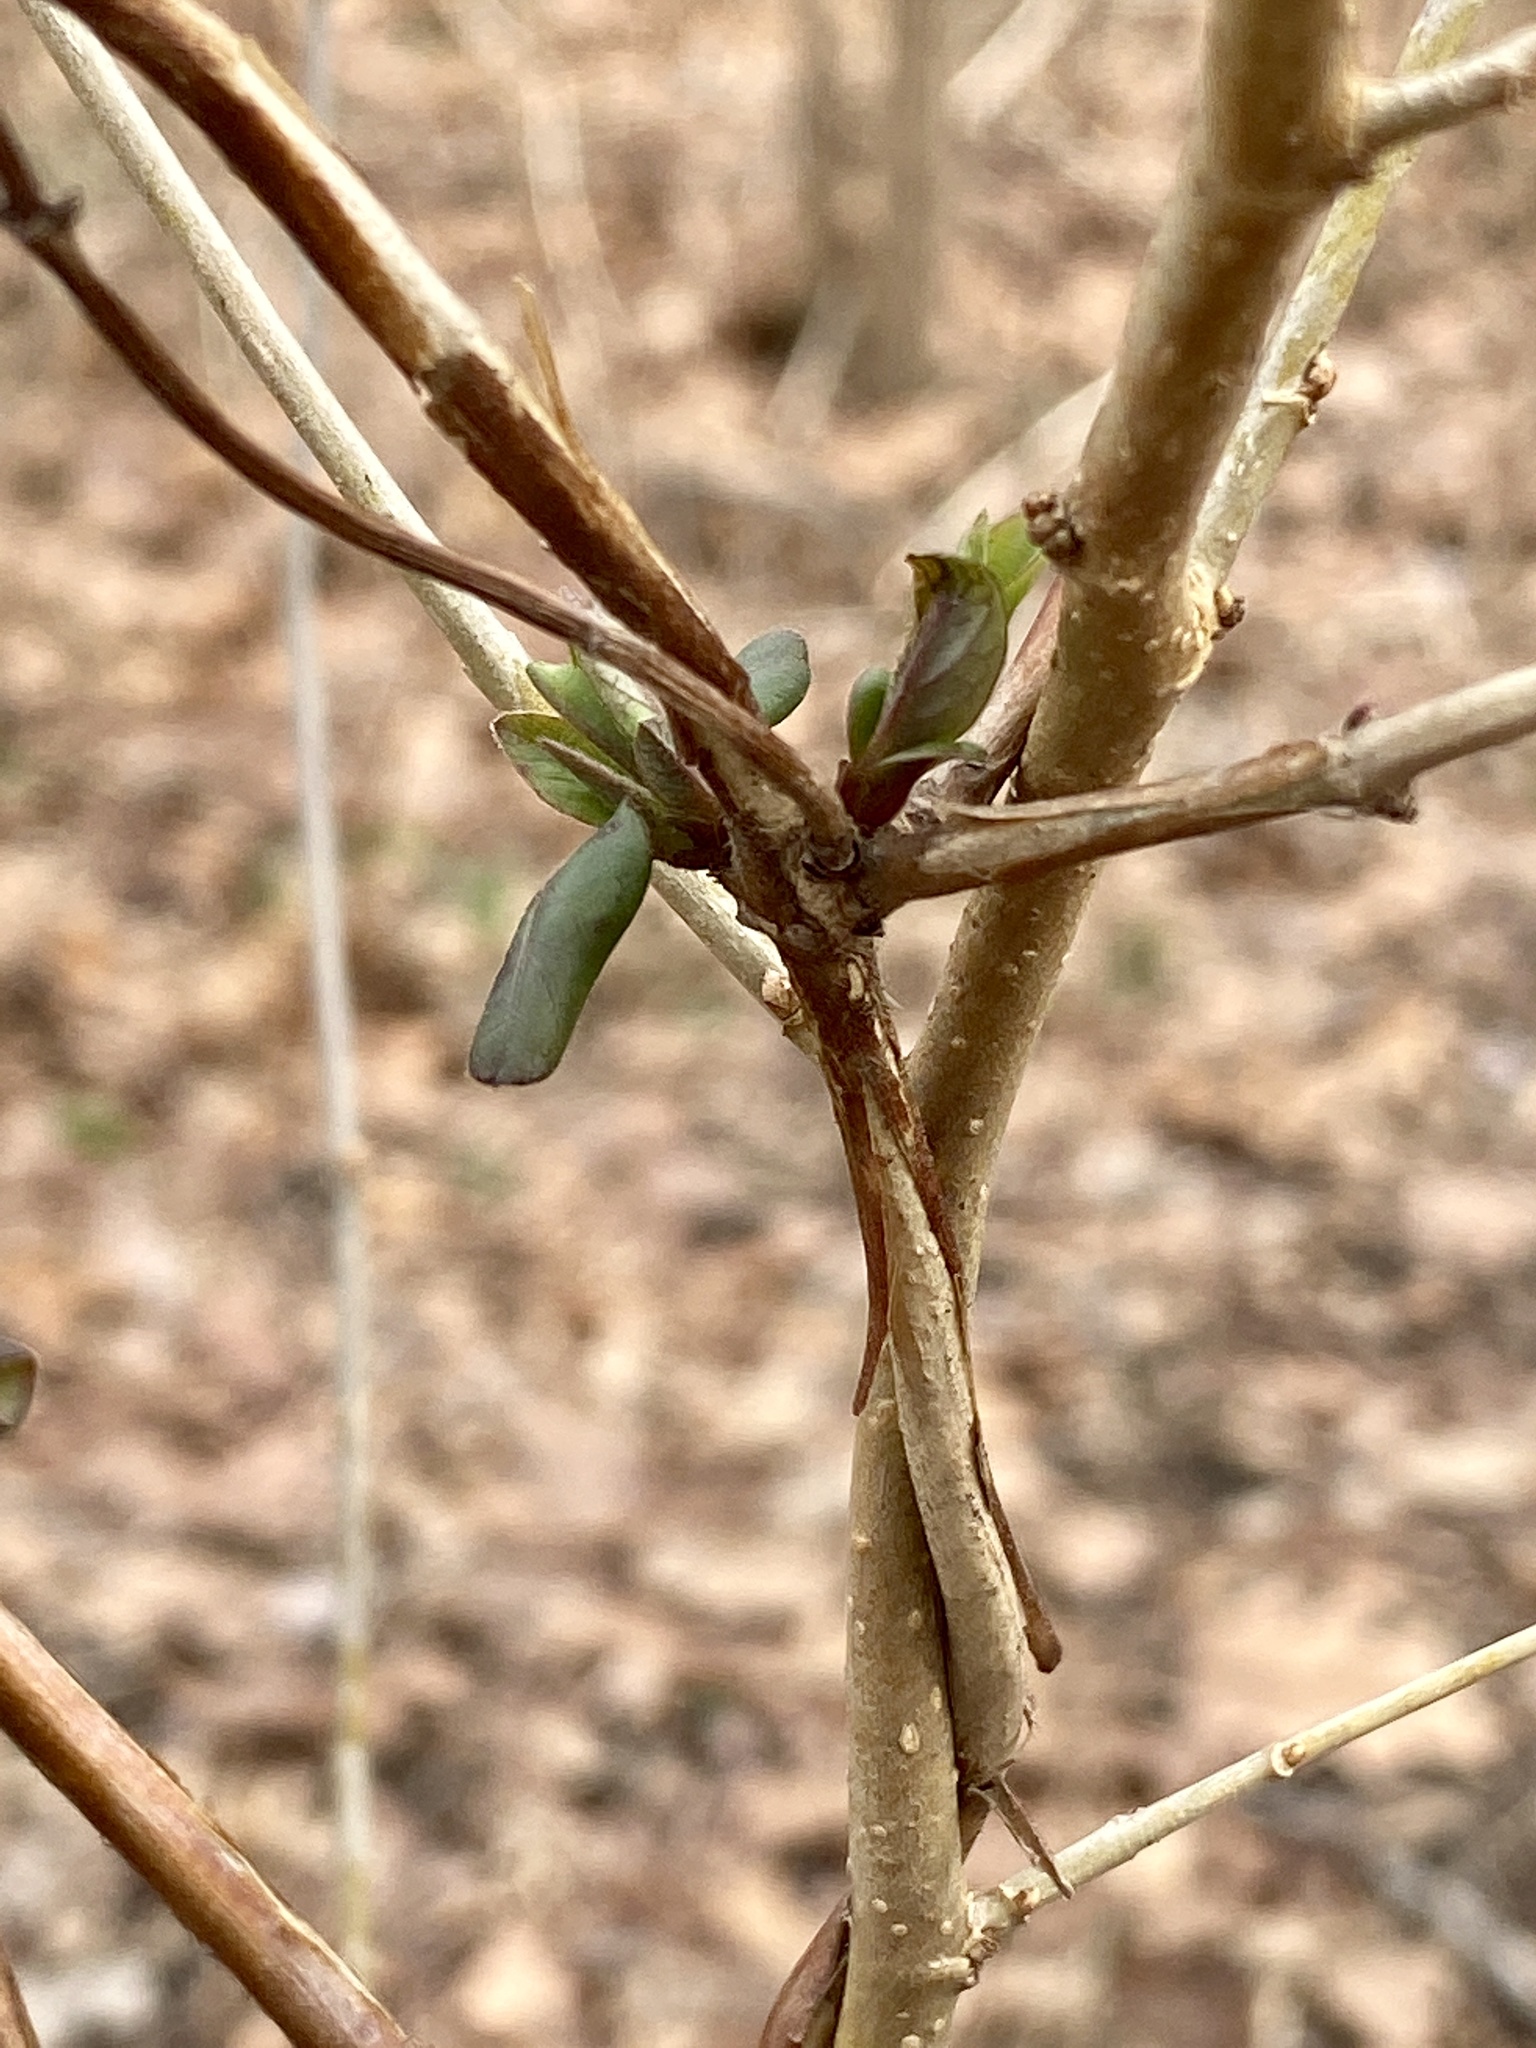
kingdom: Plantae
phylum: Tracheophyta
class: Magnoliopsida
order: Dipsacales
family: Caprifoliaceae
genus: Lonicera
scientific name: Lonicera japonica
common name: Japanese honeysuckle
